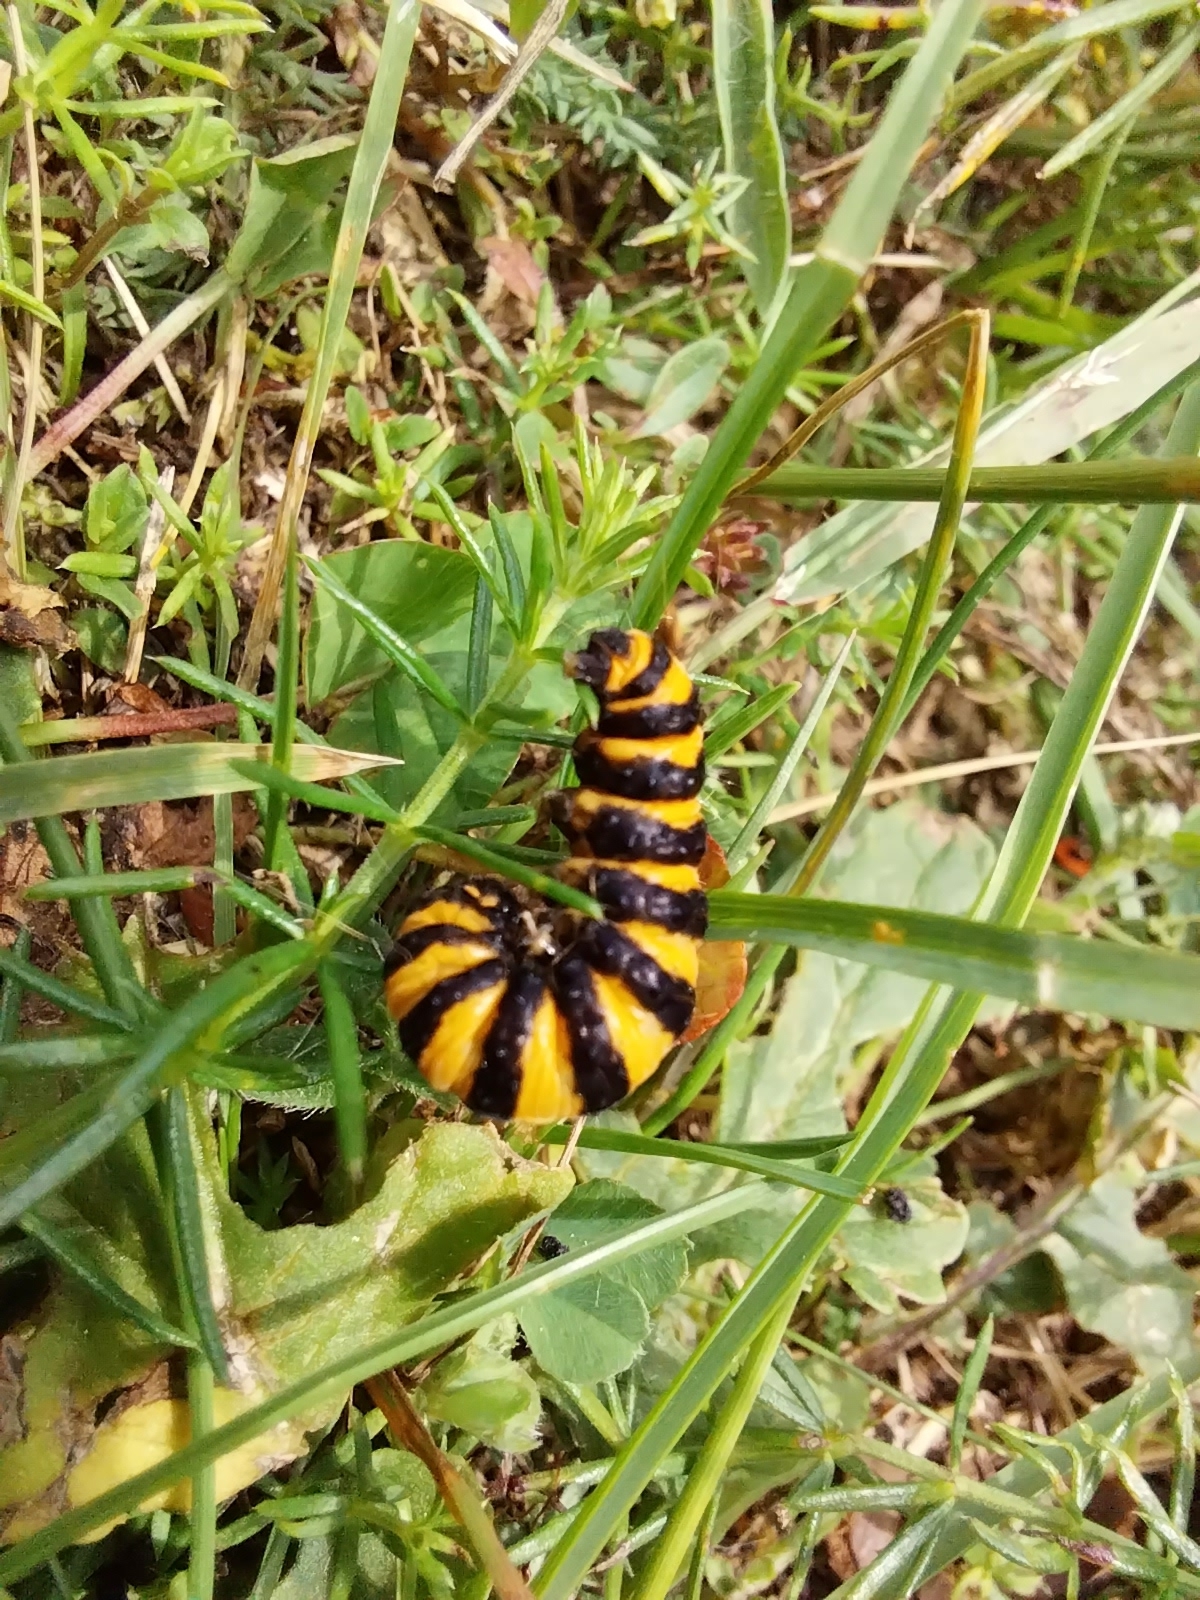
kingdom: Animalia
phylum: Arthropoda
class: Insecta
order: Lepidoptera
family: Erebidae
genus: Tyria
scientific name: Tyria jacobaeae
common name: Cinnabar
